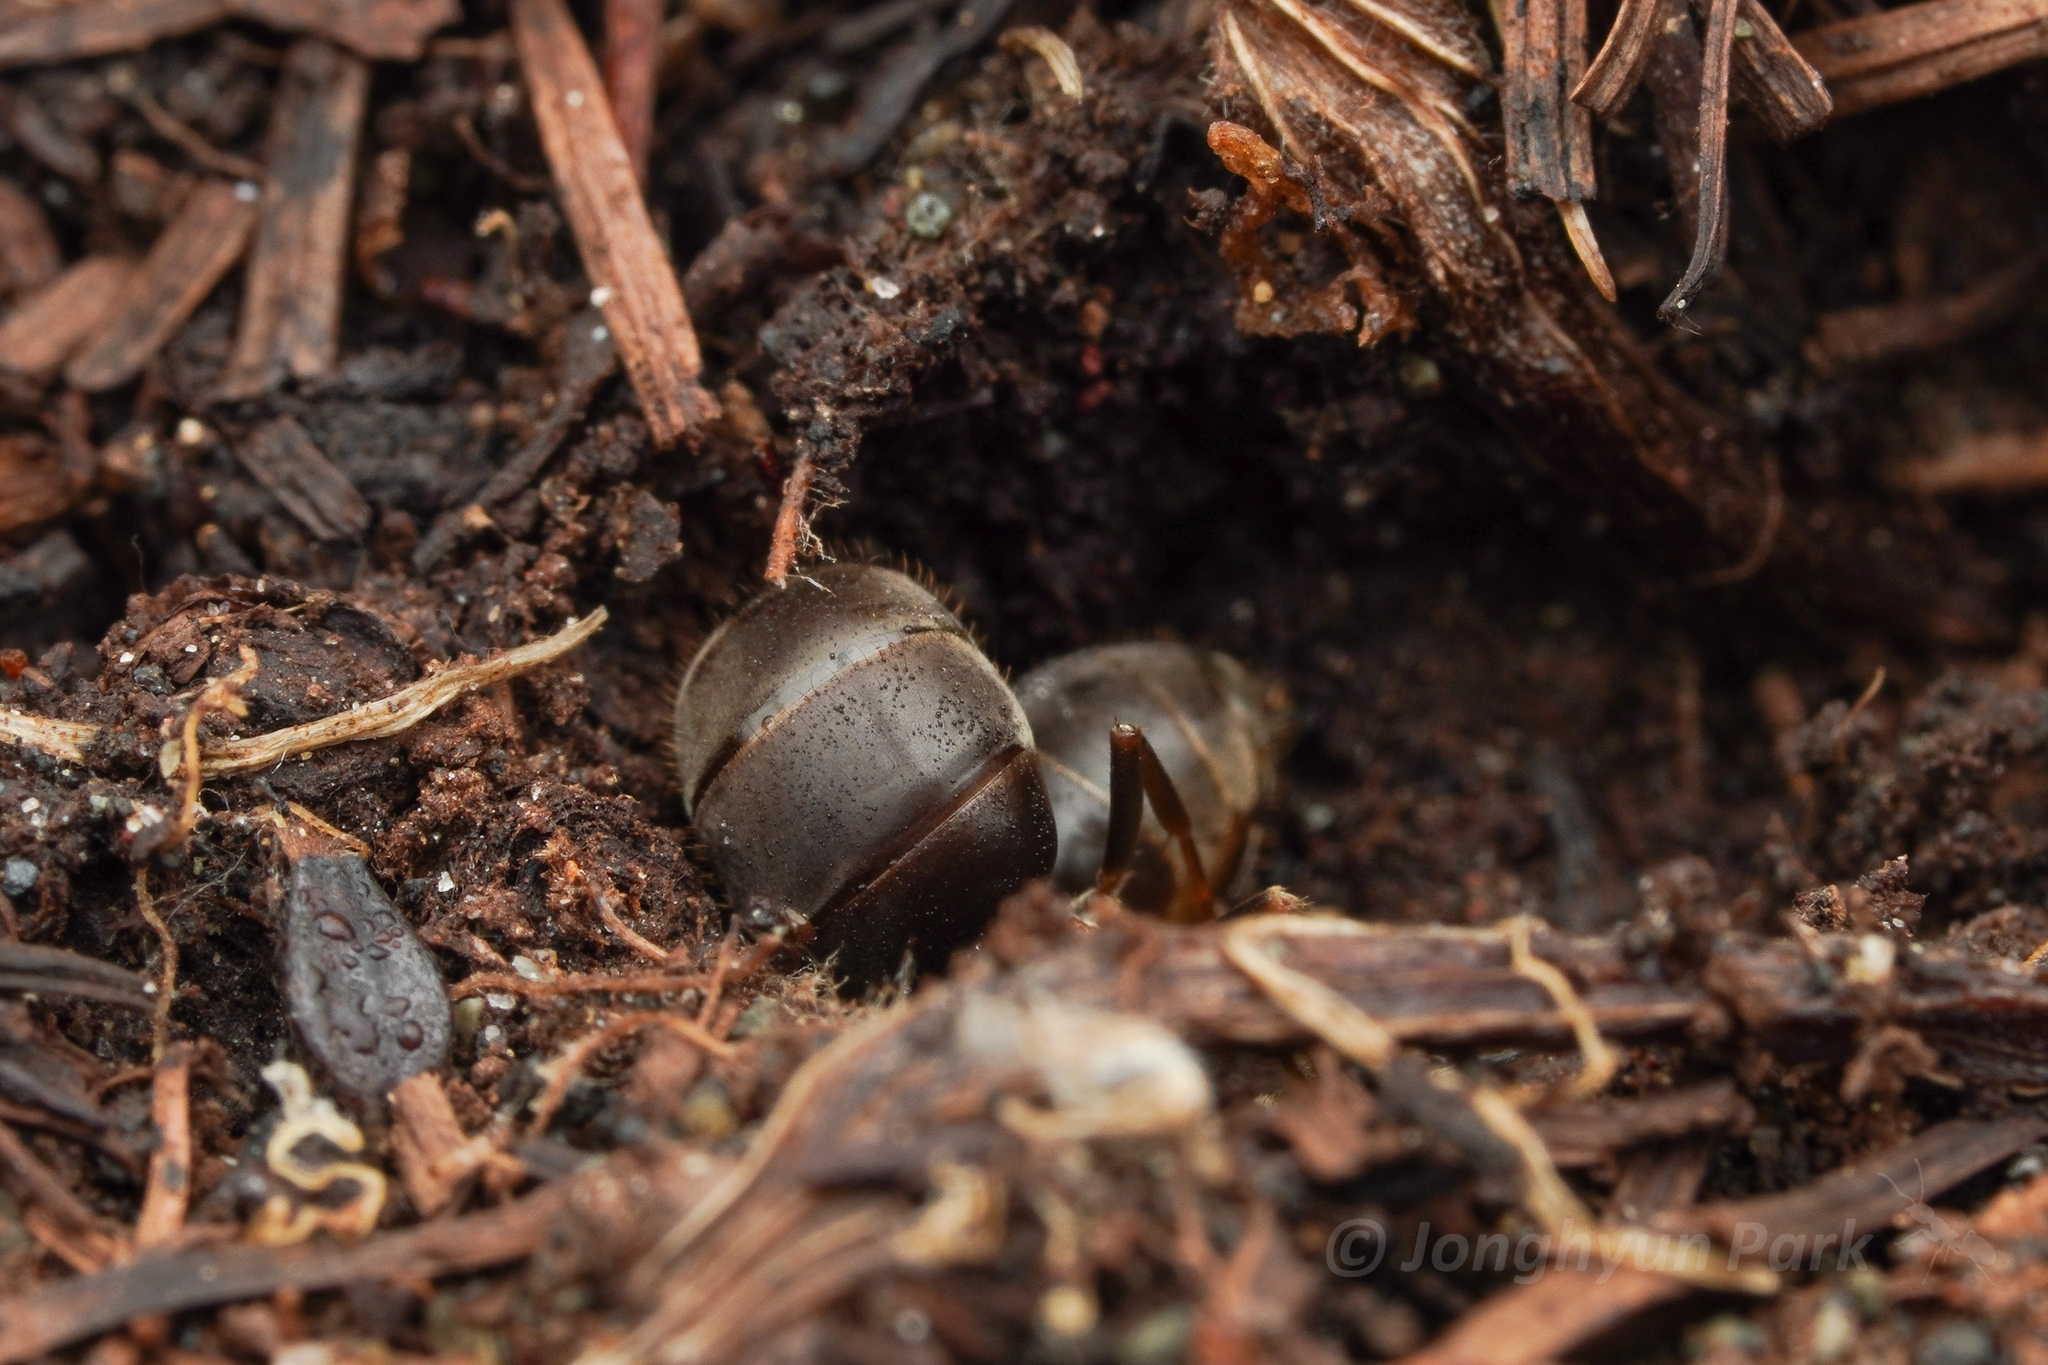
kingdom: Animalia
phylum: Arthropoda
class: Insecta
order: Hymenoptera
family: Formicidae
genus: Lasius
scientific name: Lasius japonicus
